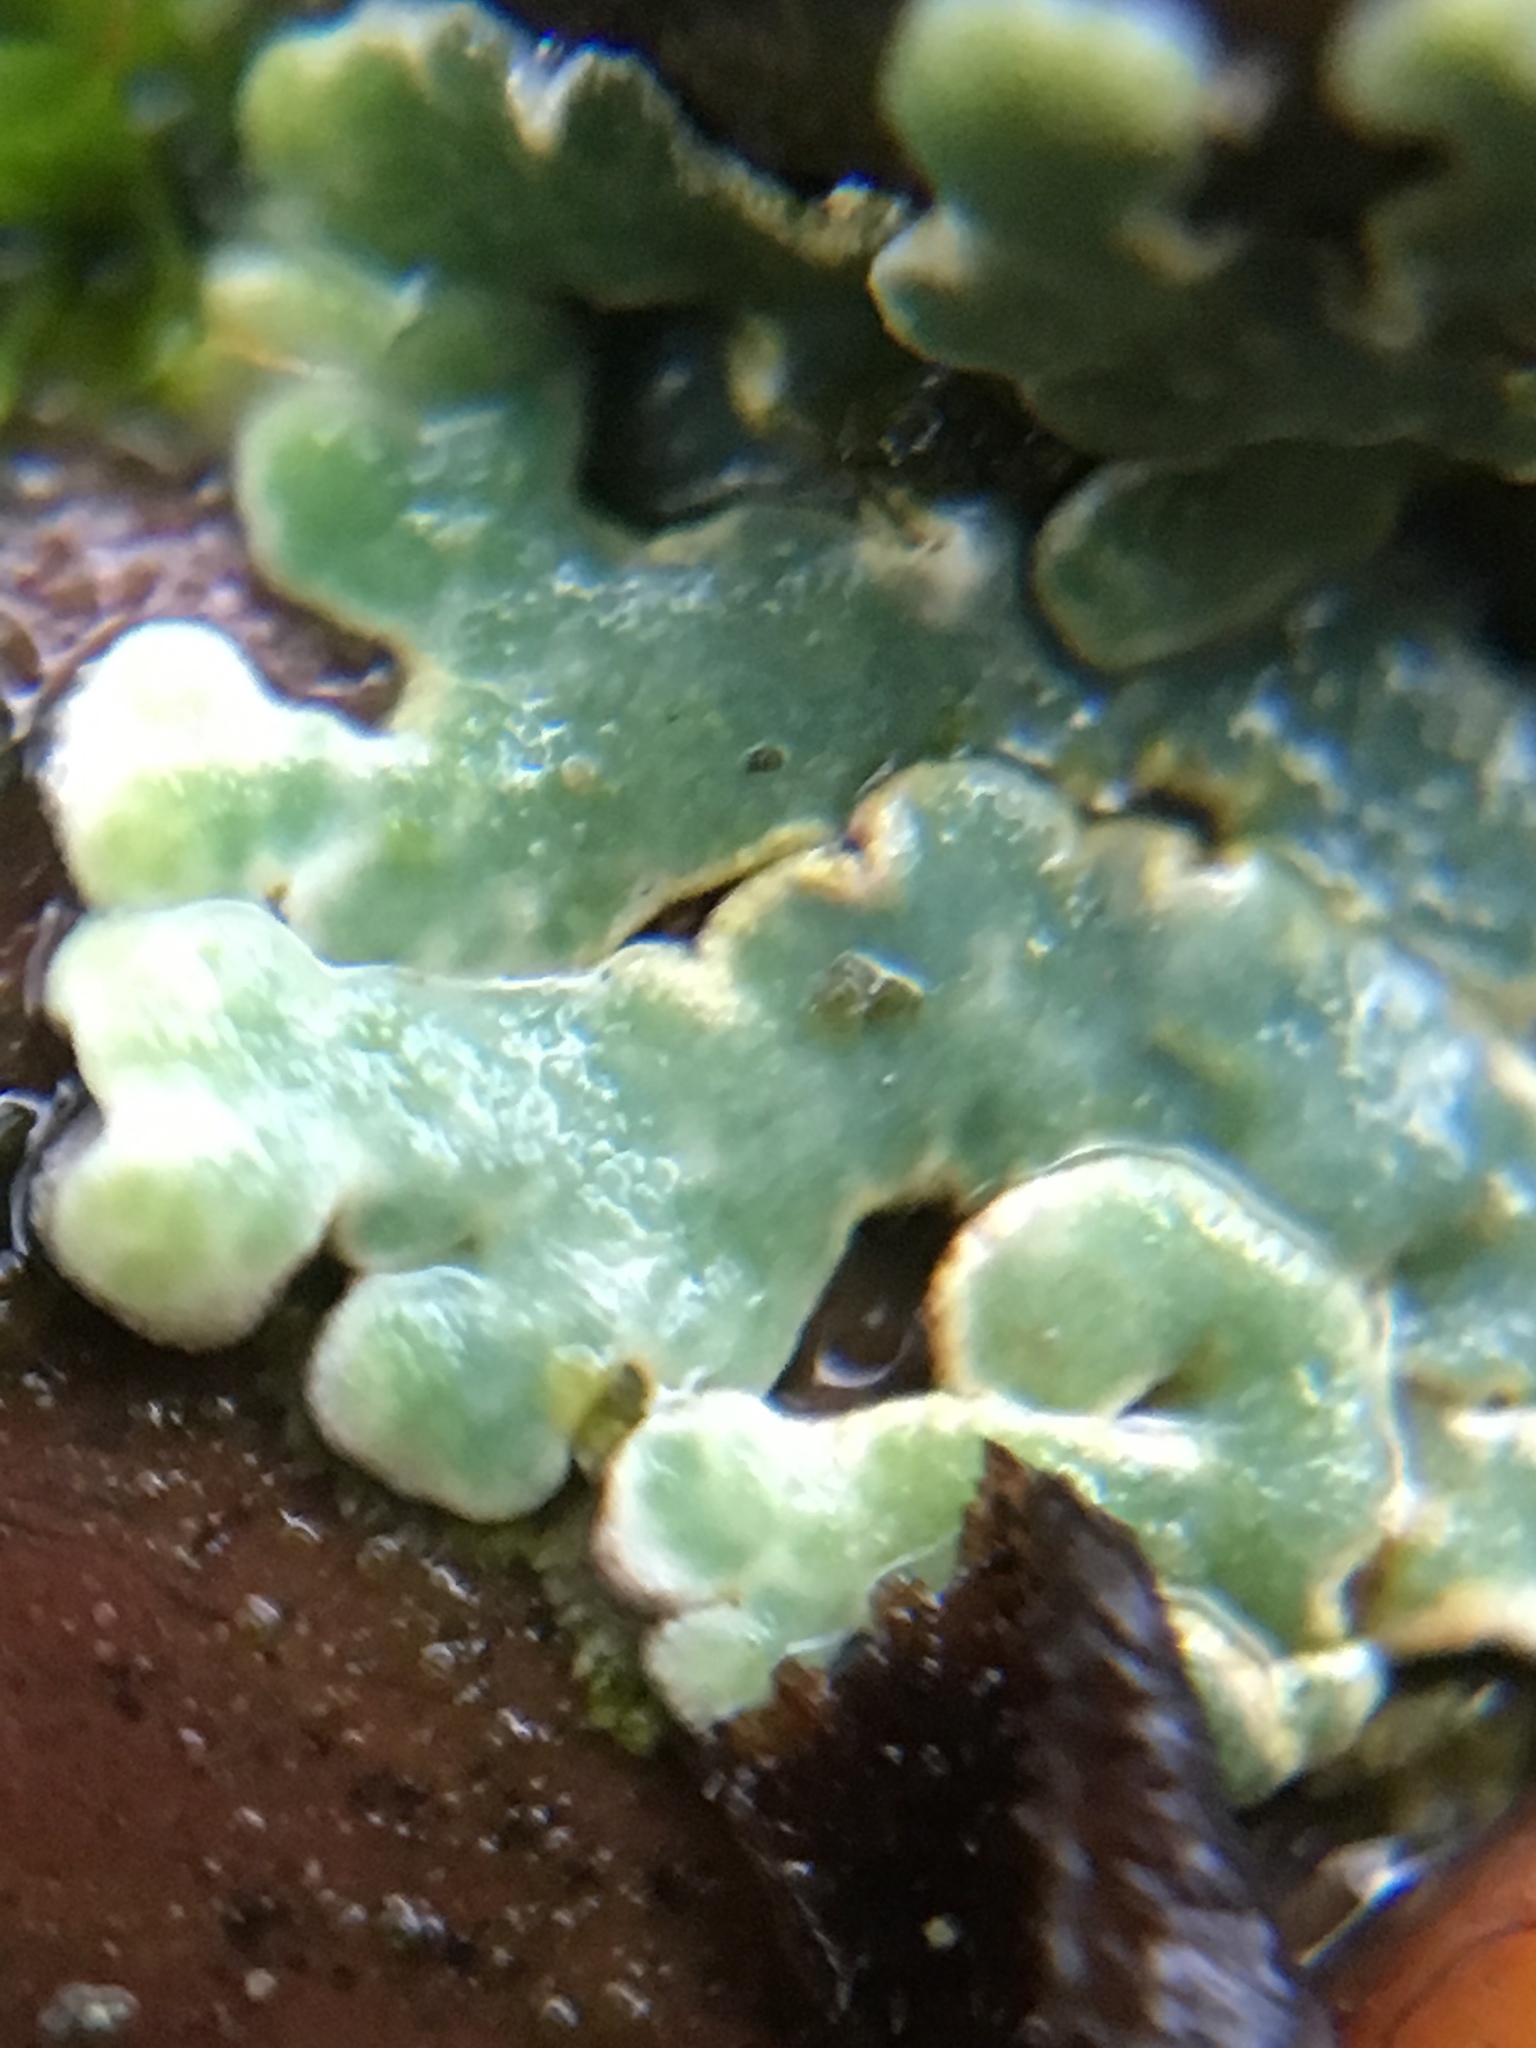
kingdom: Fungi
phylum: Ascomycota
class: Lecanoromycetes
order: Lecanorales
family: Lecanoraceae
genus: Protoparmeliopsis
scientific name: Protoparmeliopsis muralis
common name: Stonewall rim lichen
